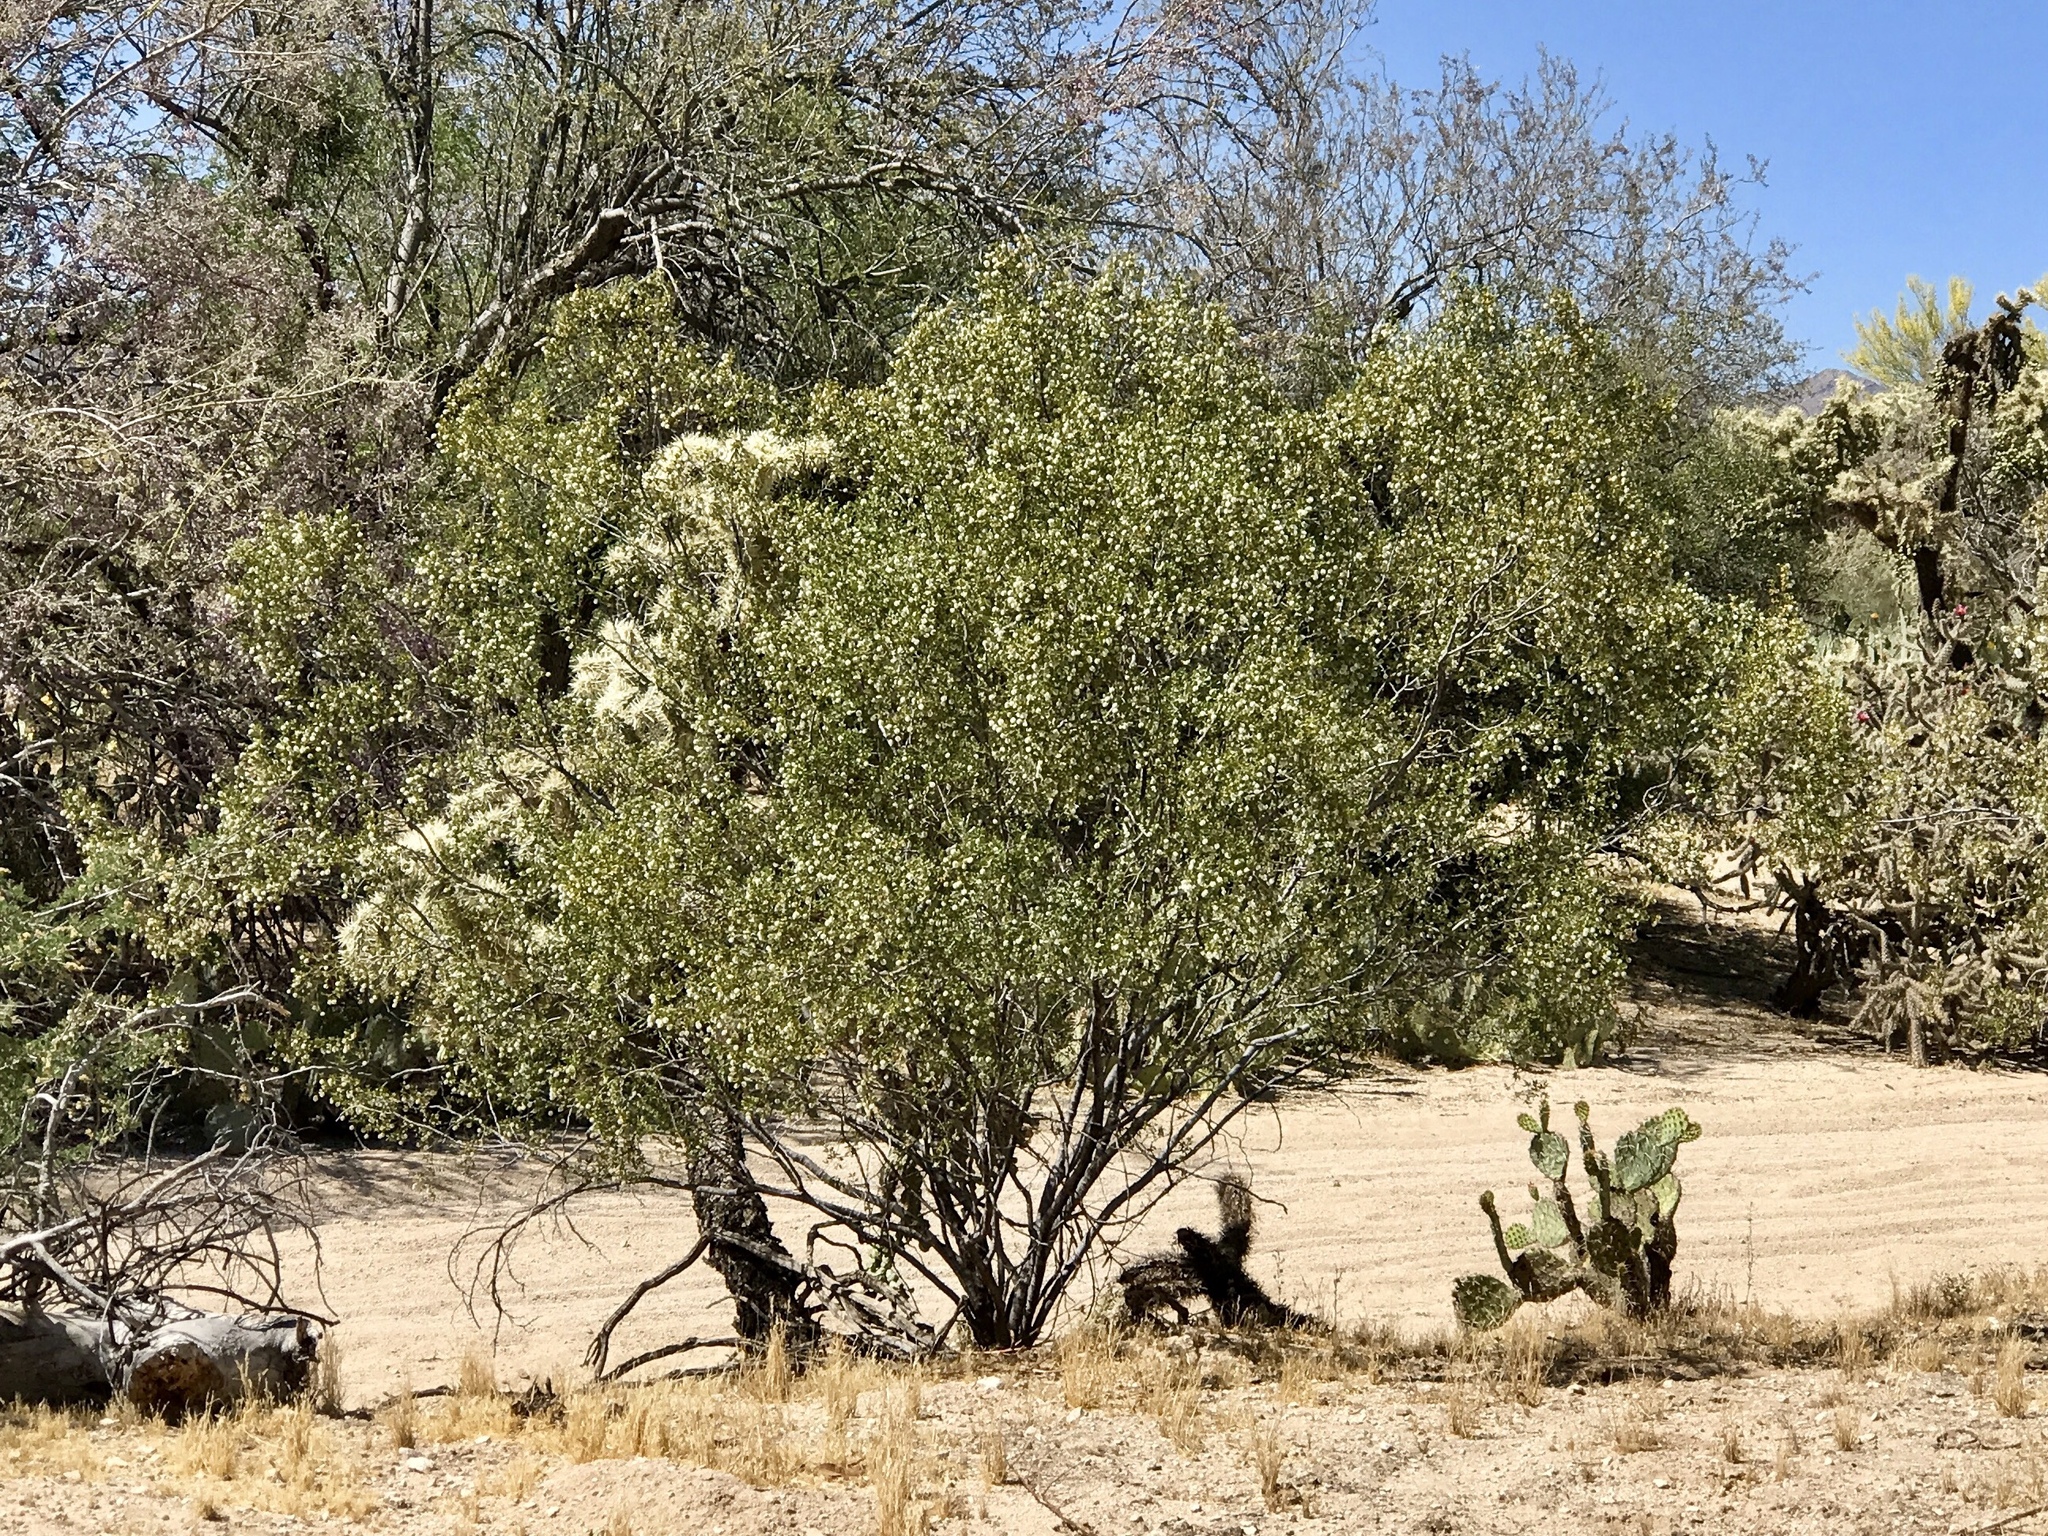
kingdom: Plantae
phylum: Tracheophyta
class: Magnoliopsida
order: Zygophyllales
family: Zygophyllaceae
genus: Larrea
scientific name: Larrea tridentata
